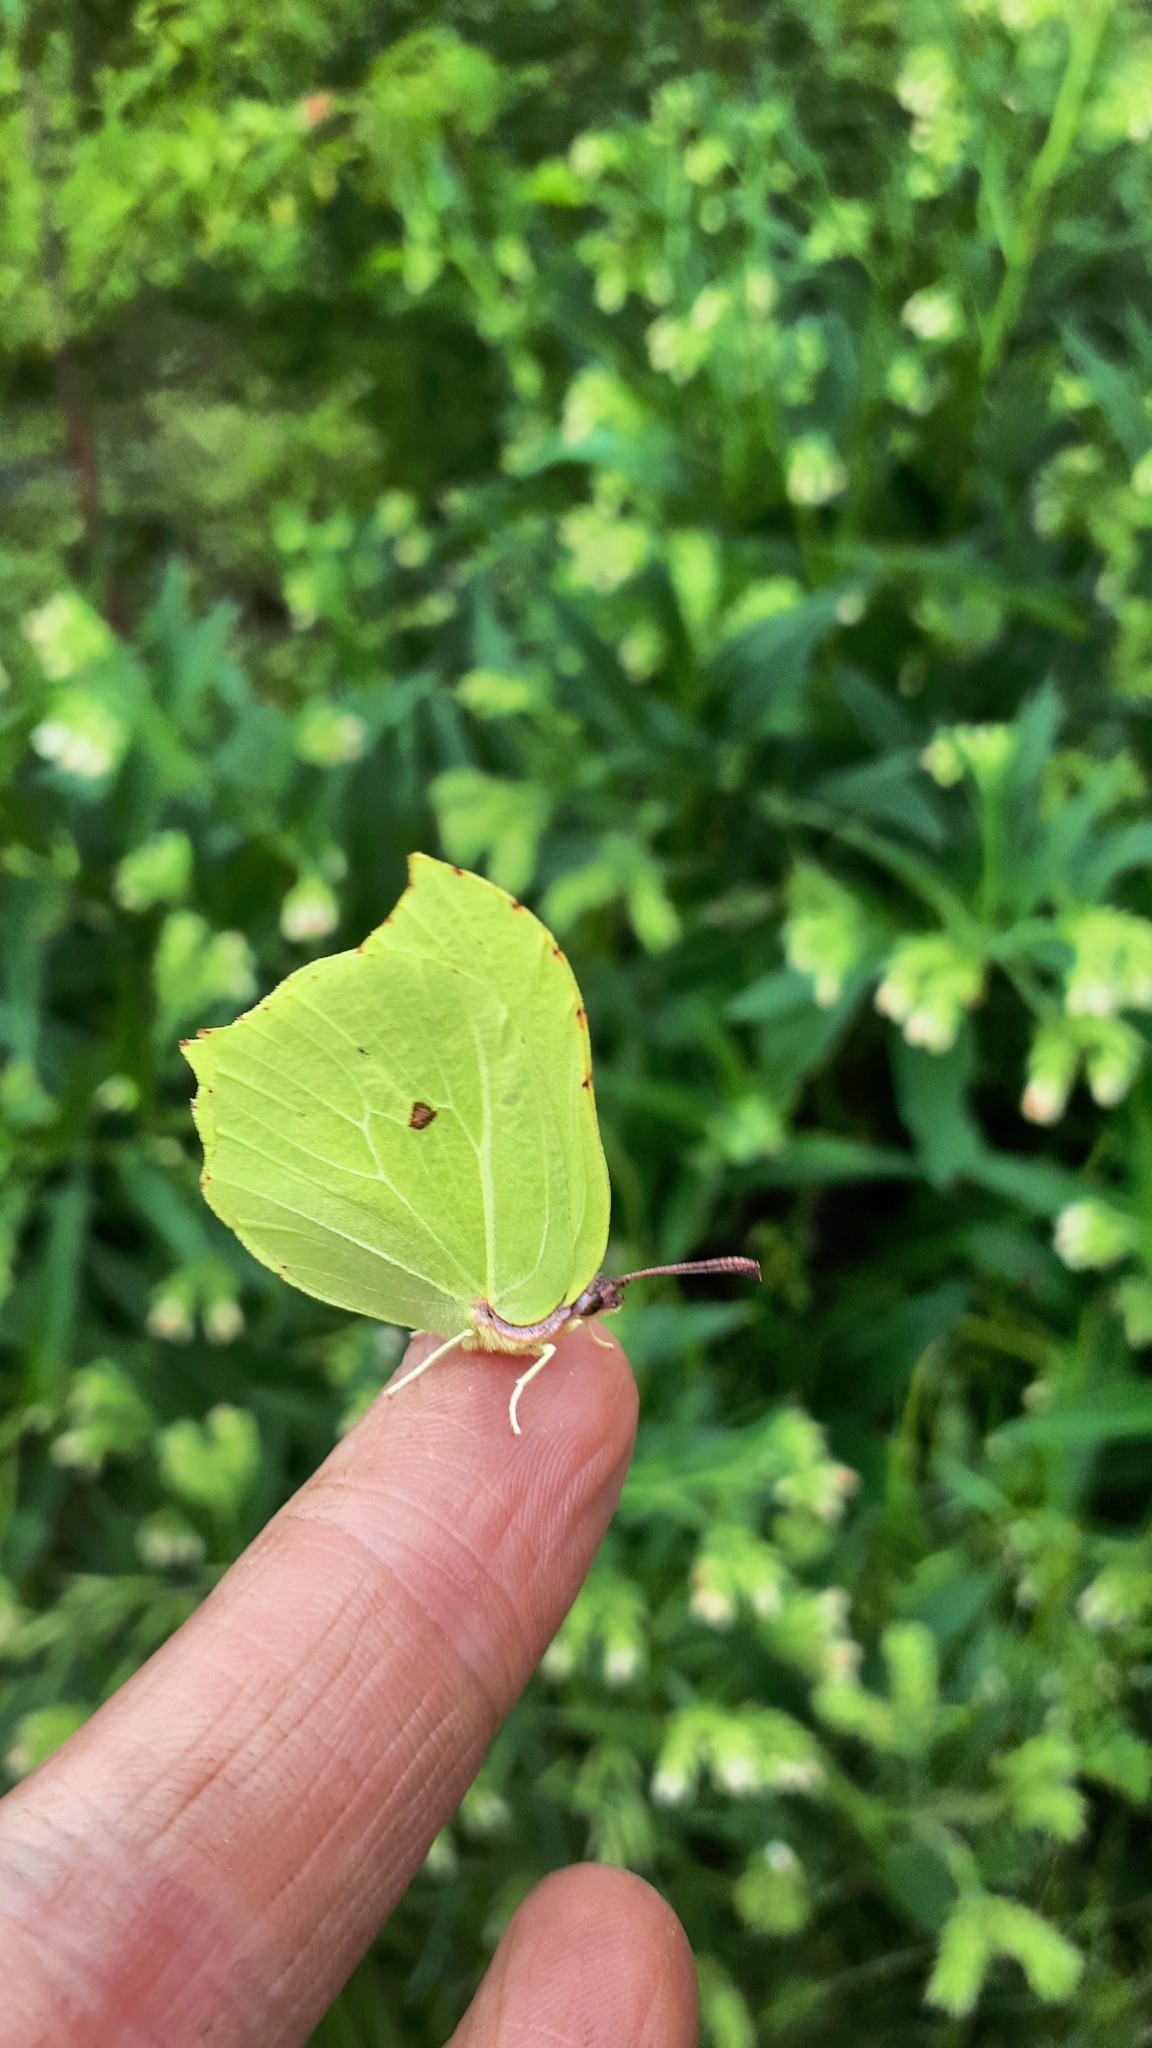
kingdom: Animalia
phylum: Arthropoda
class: Insecta
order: Lepidoptera
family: Pieridae
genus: Gonepteryx
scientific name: Gonepteryx rhamni
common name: Brimstone
